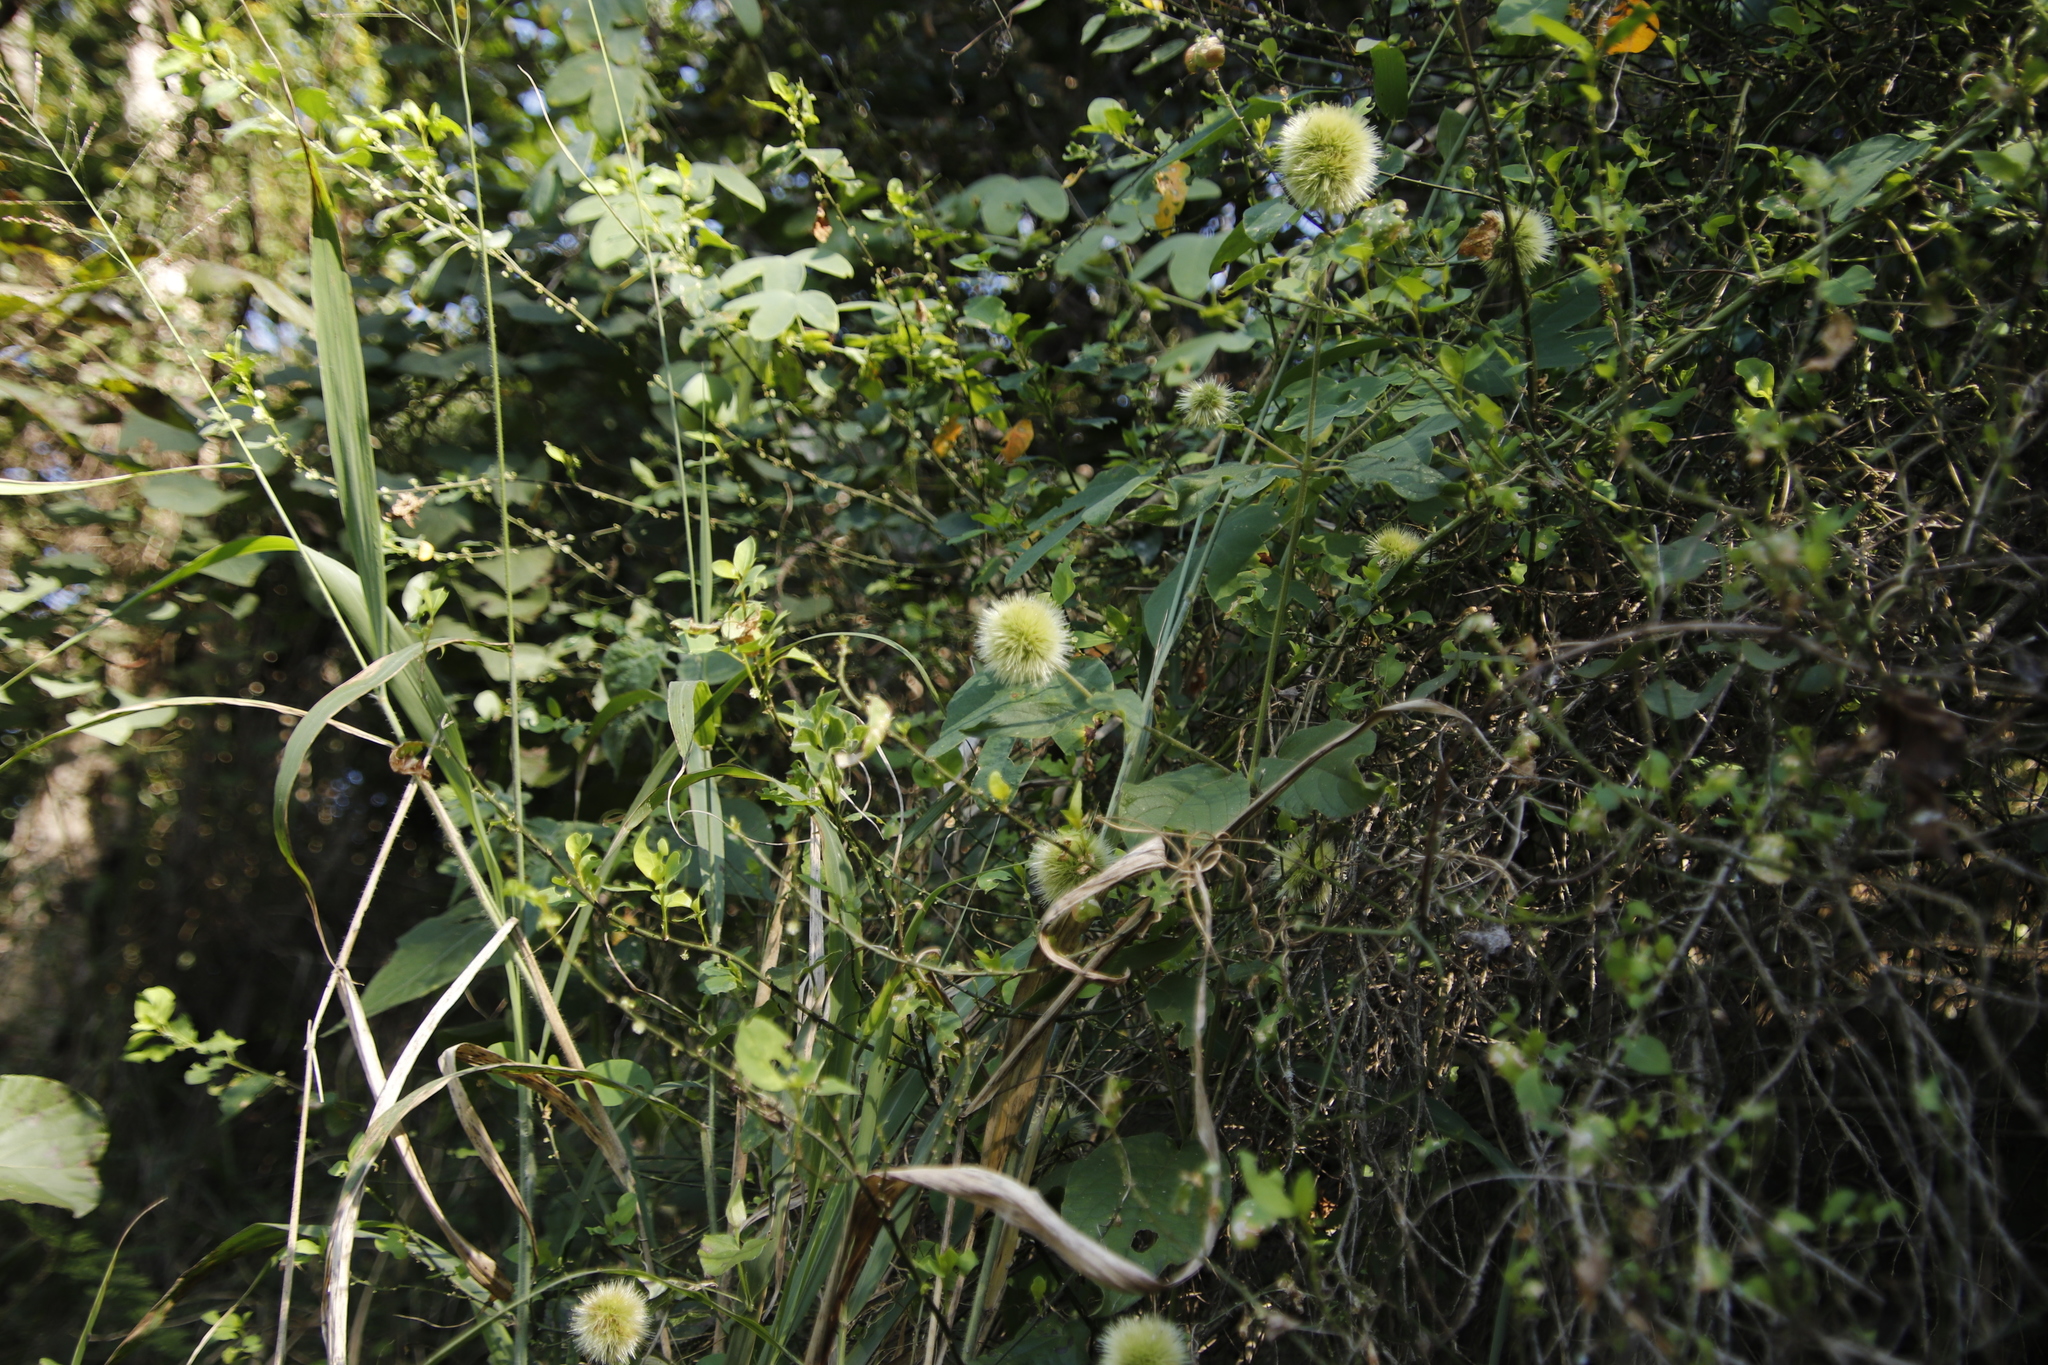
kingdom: Plantae
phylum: Tracheophyta
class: Magnoliopsida
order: Caryophyllales
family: Amaranthaceae
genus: Cyathula
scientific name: Cyathula uncinulata
